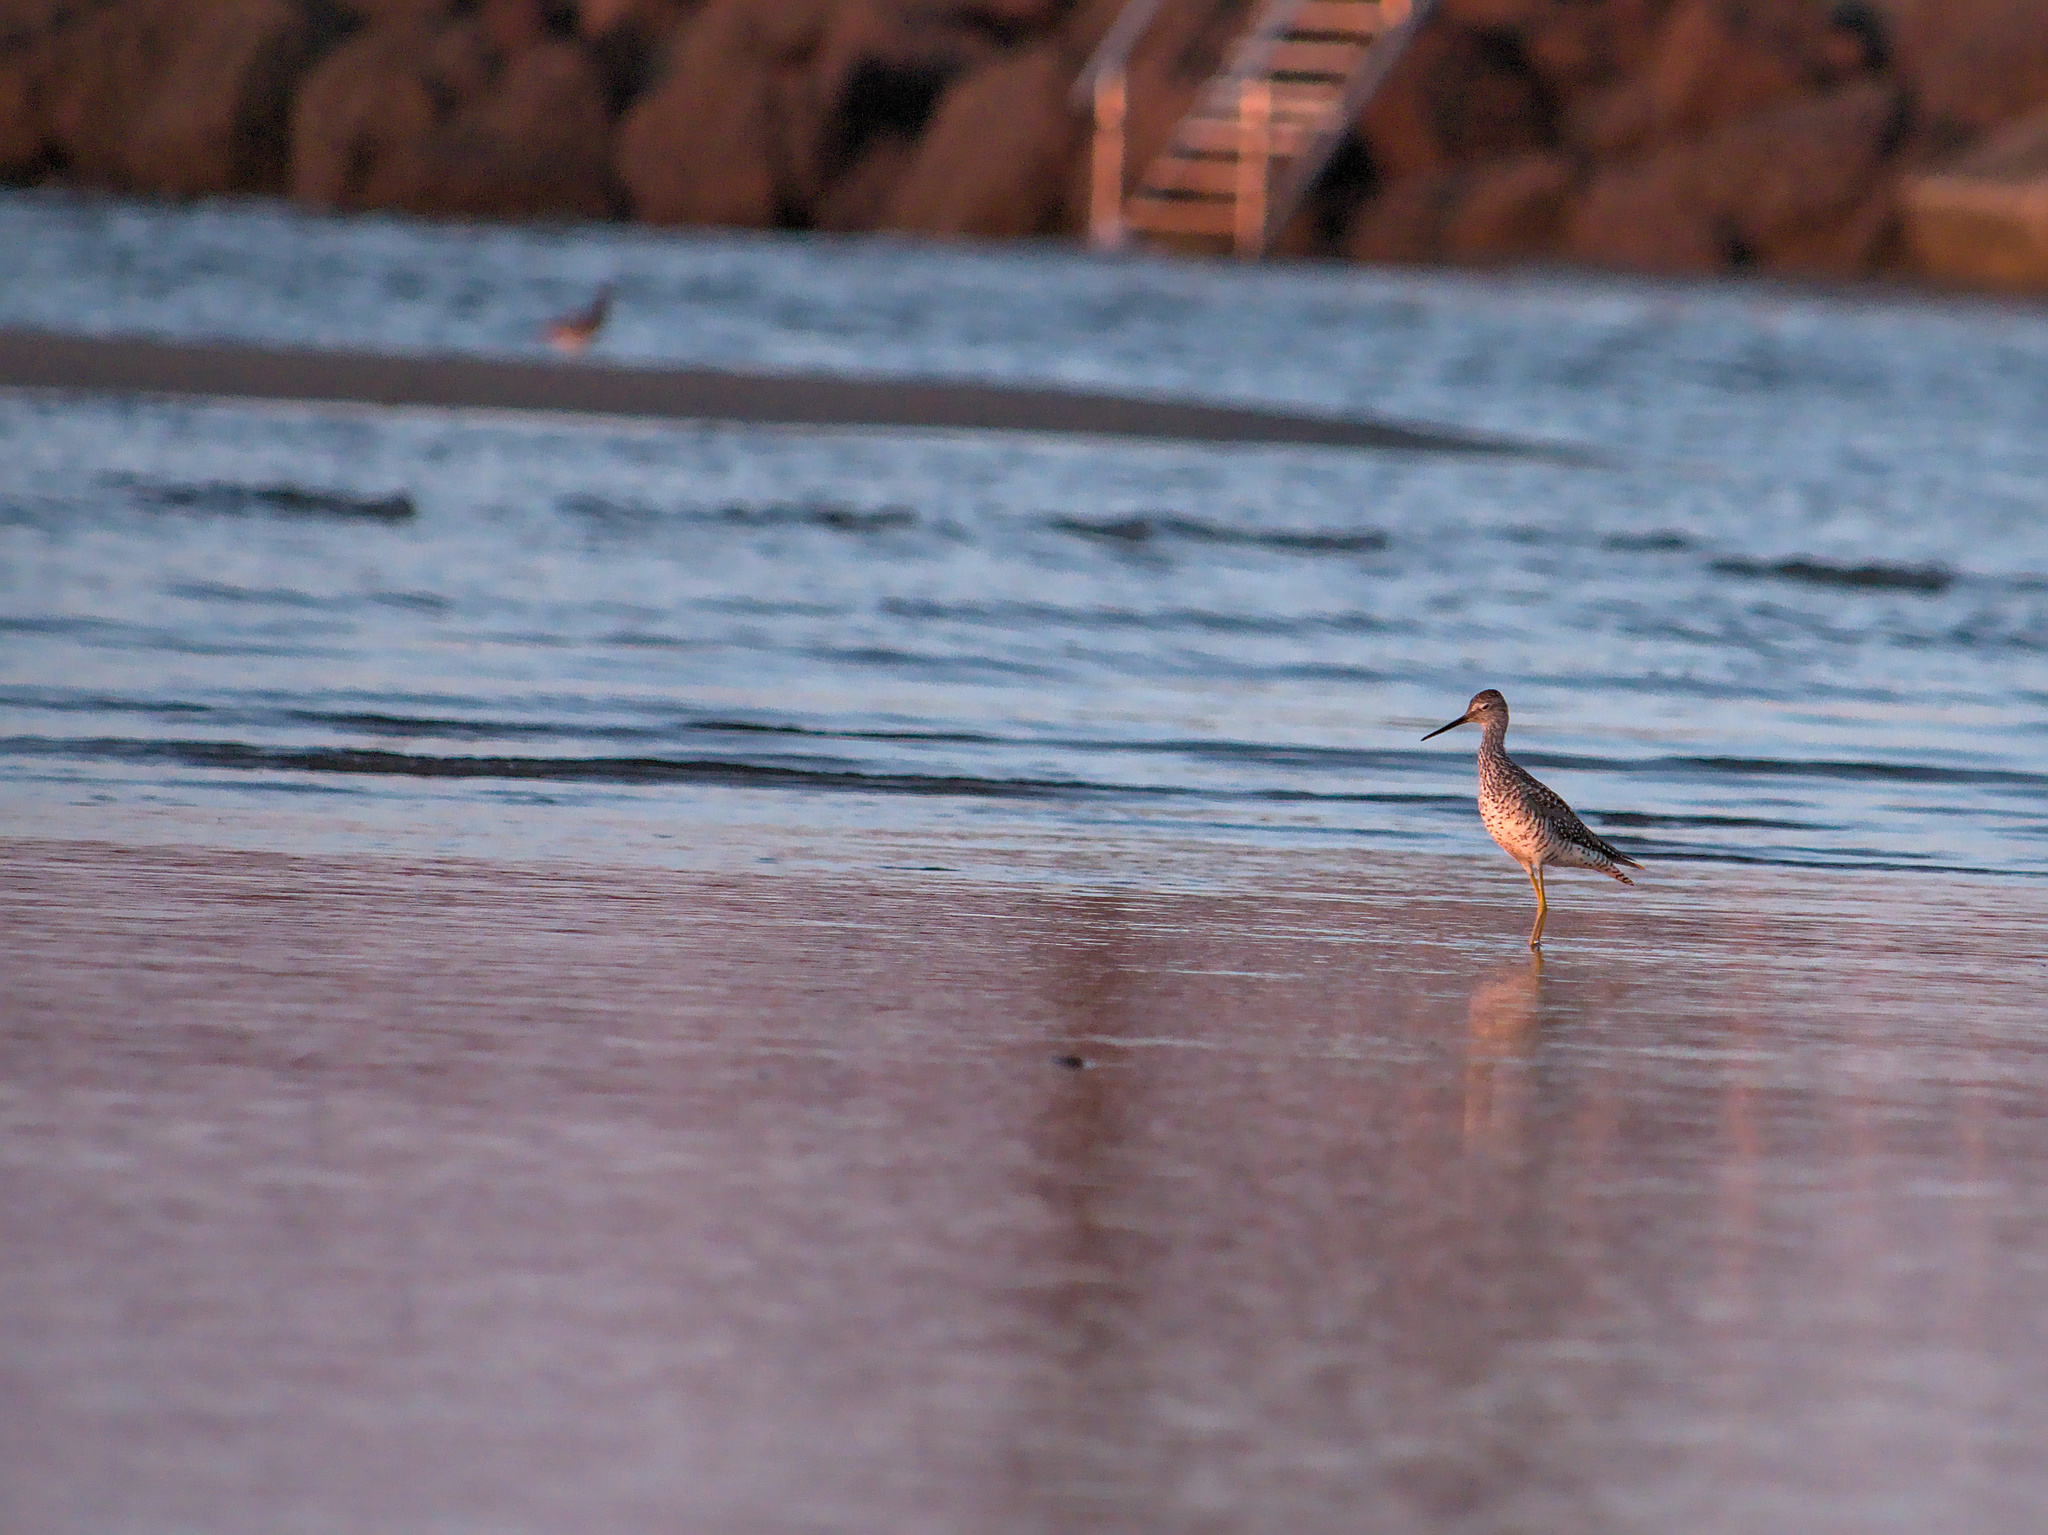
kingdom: Animalia
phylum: Chordata
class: Aves
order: Charadriiformes
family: Scolopacidae
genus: Tringa
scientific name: Tringa melanoleuca
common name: Greater yellowlegs
